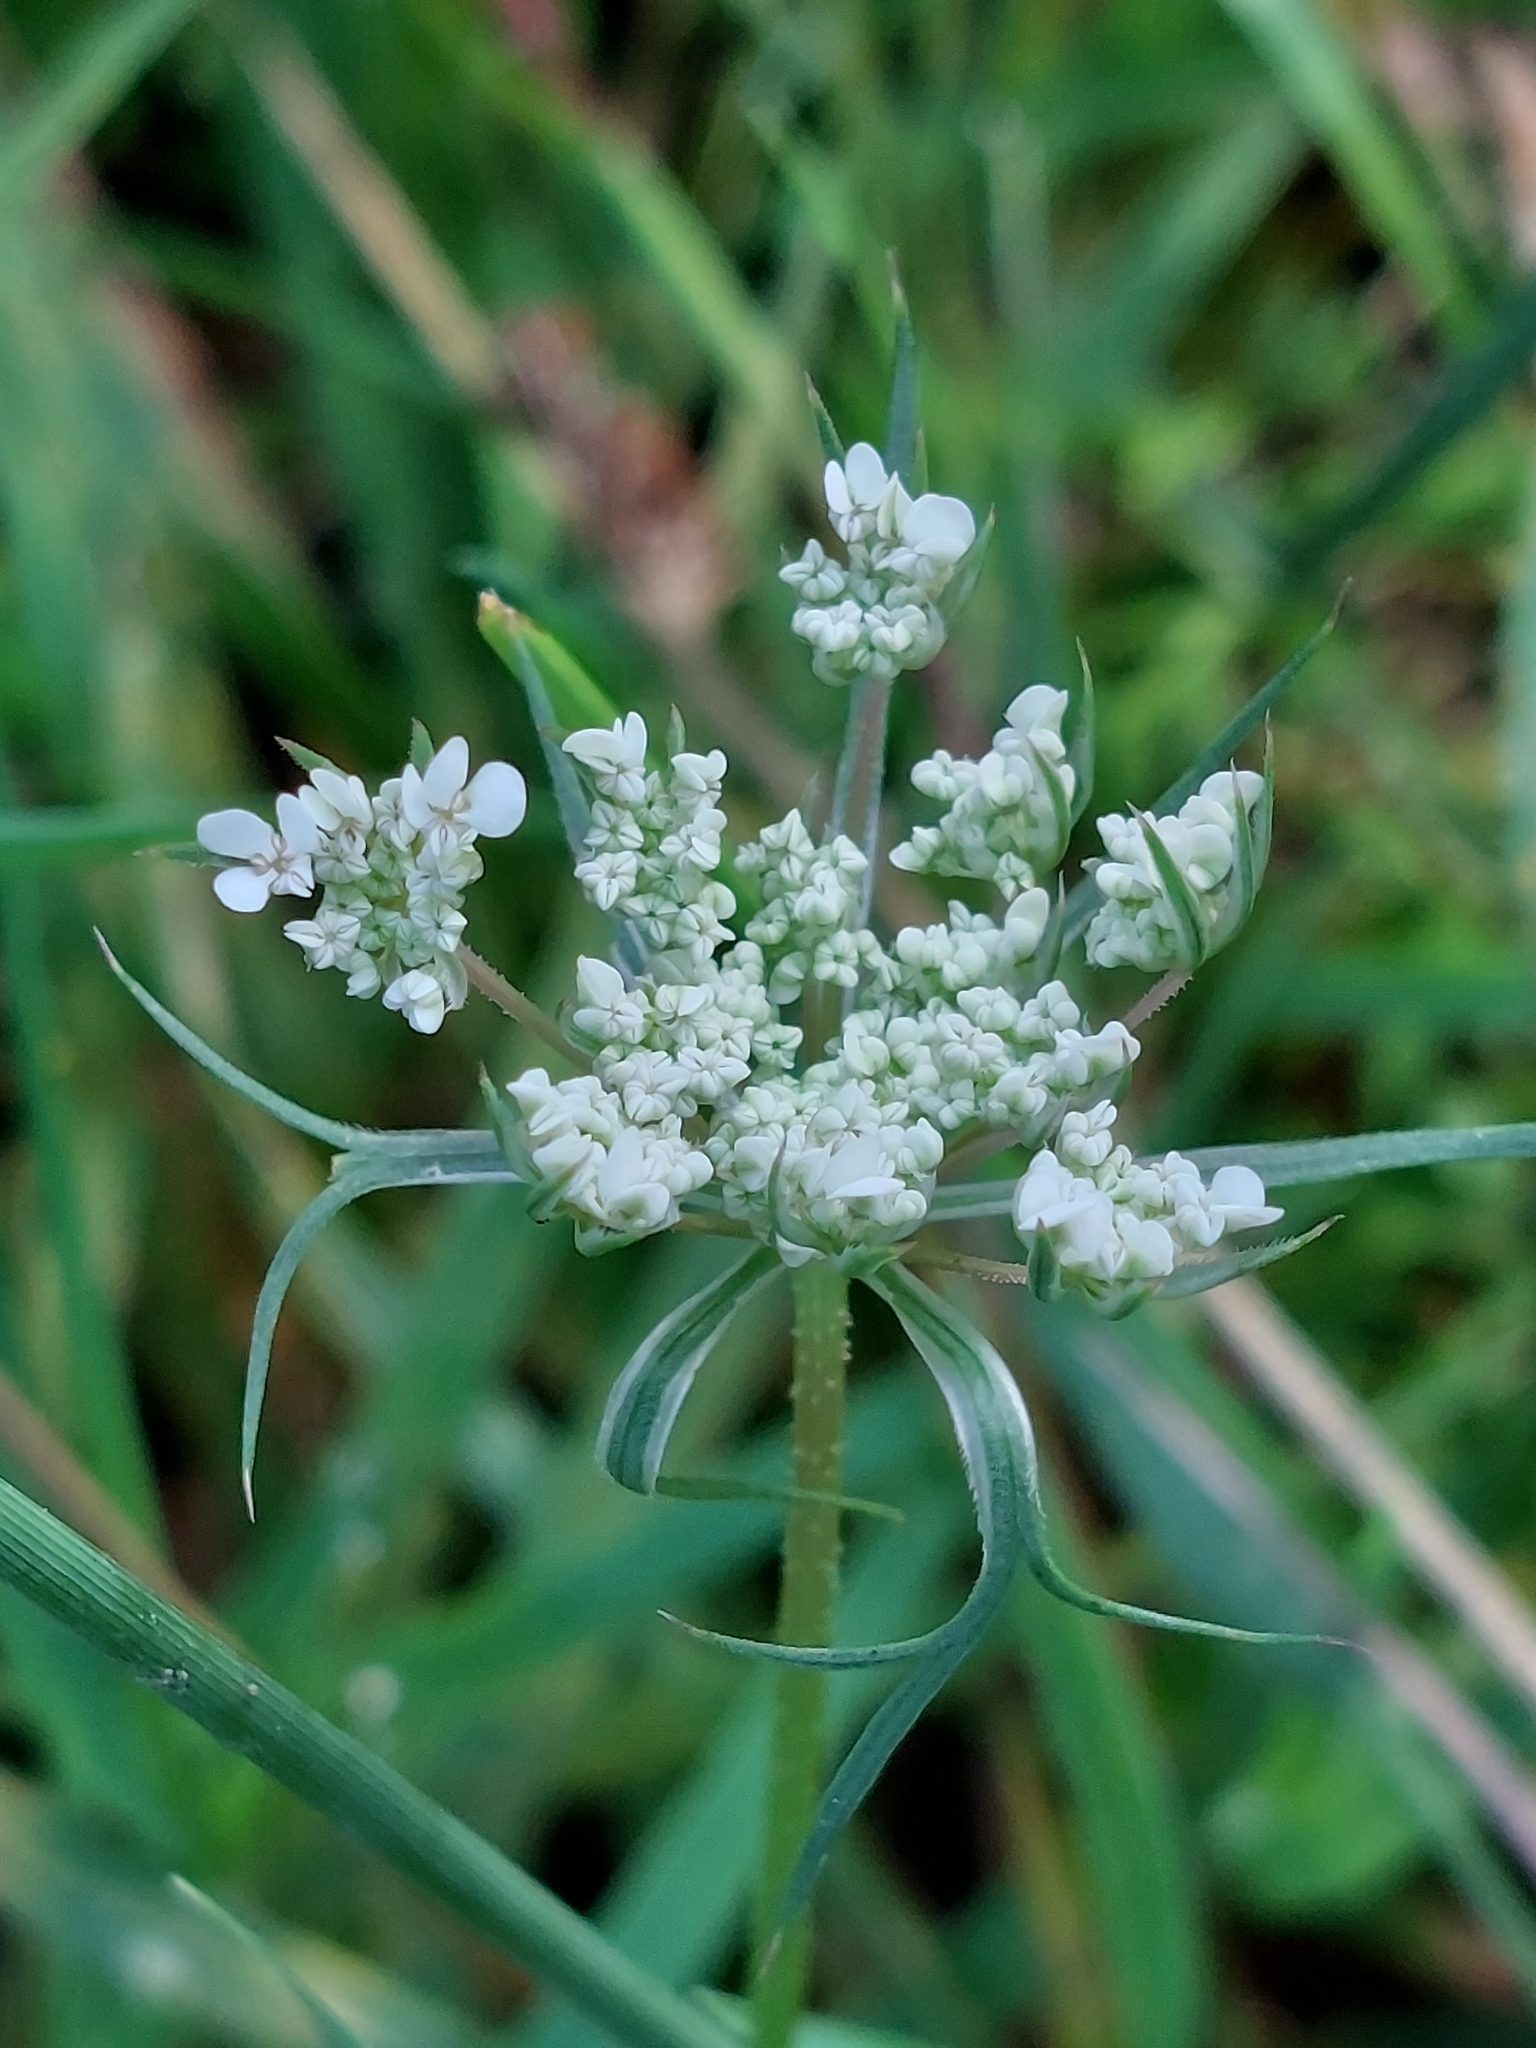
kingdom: Plantae
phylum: Tracheophyta
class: Magnoliopsida
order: Apiales
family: Apiaceae
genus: Daucus
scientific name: Daucus carota
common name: Wild carrot
